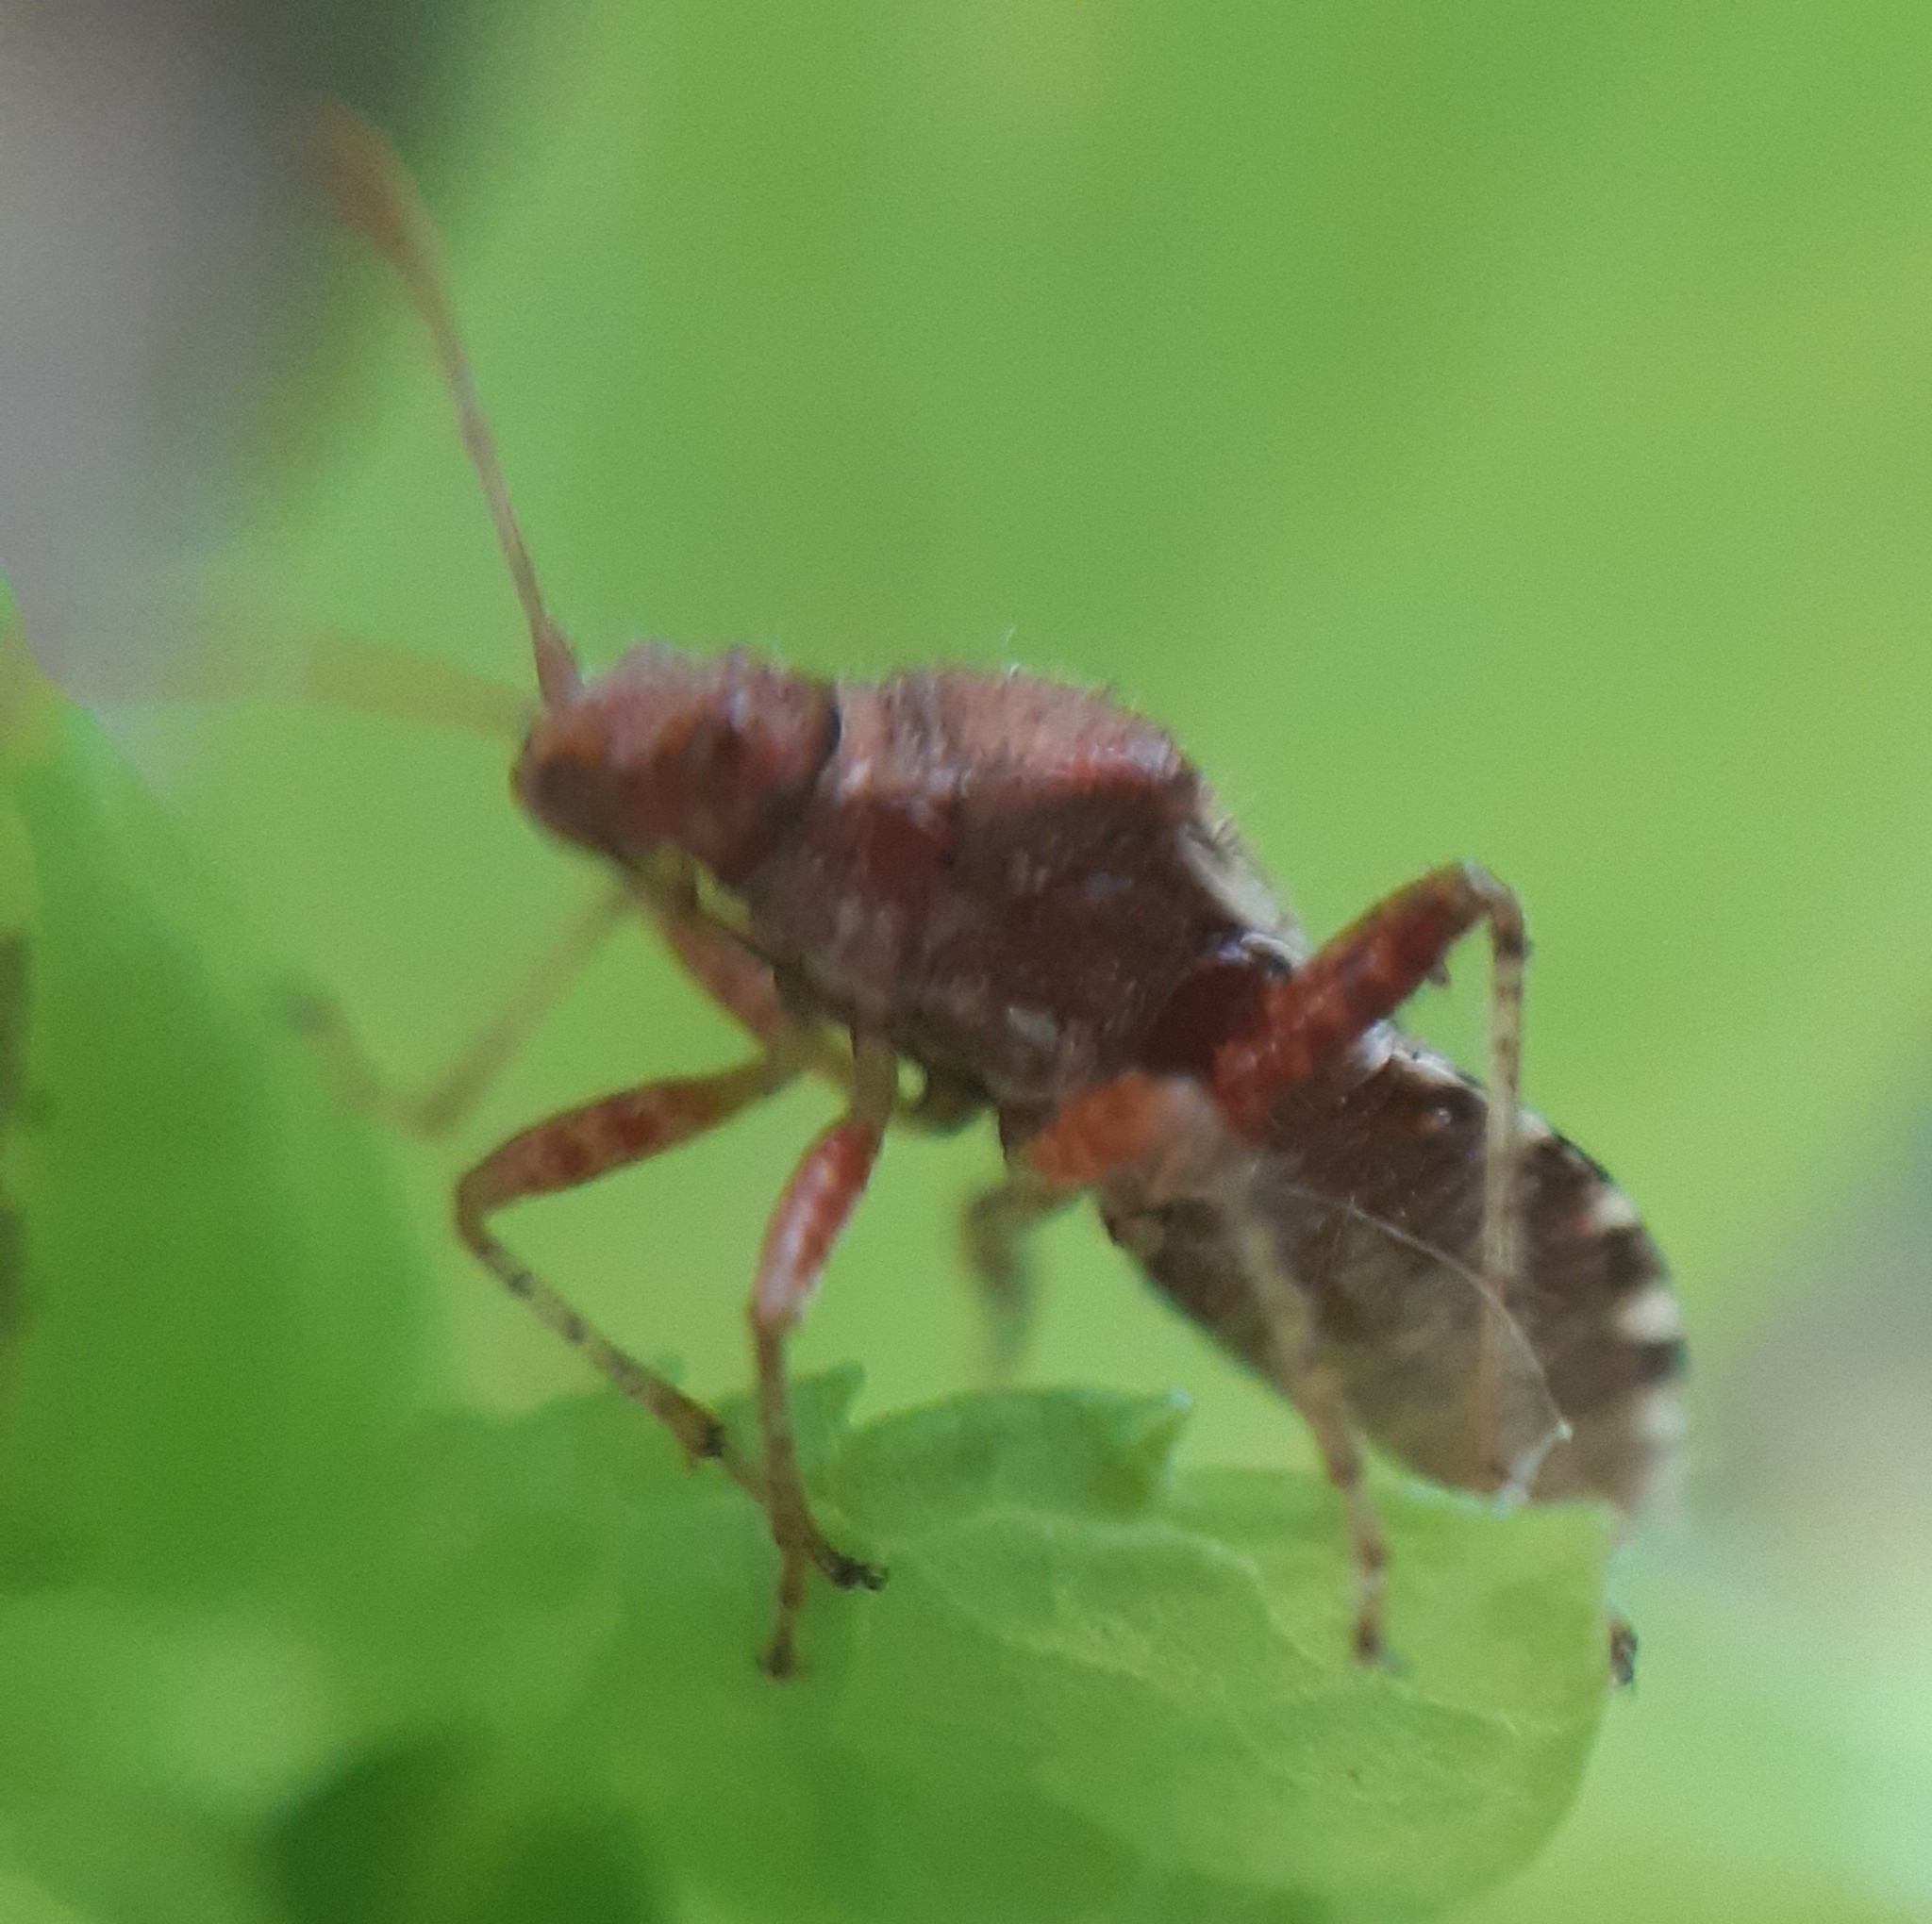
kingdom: Animalia
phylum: Arthropoda
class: Insecta
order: Hemiptera
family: Rhopalidae
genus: Rhopalus
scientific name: Rhopalus subrufus
